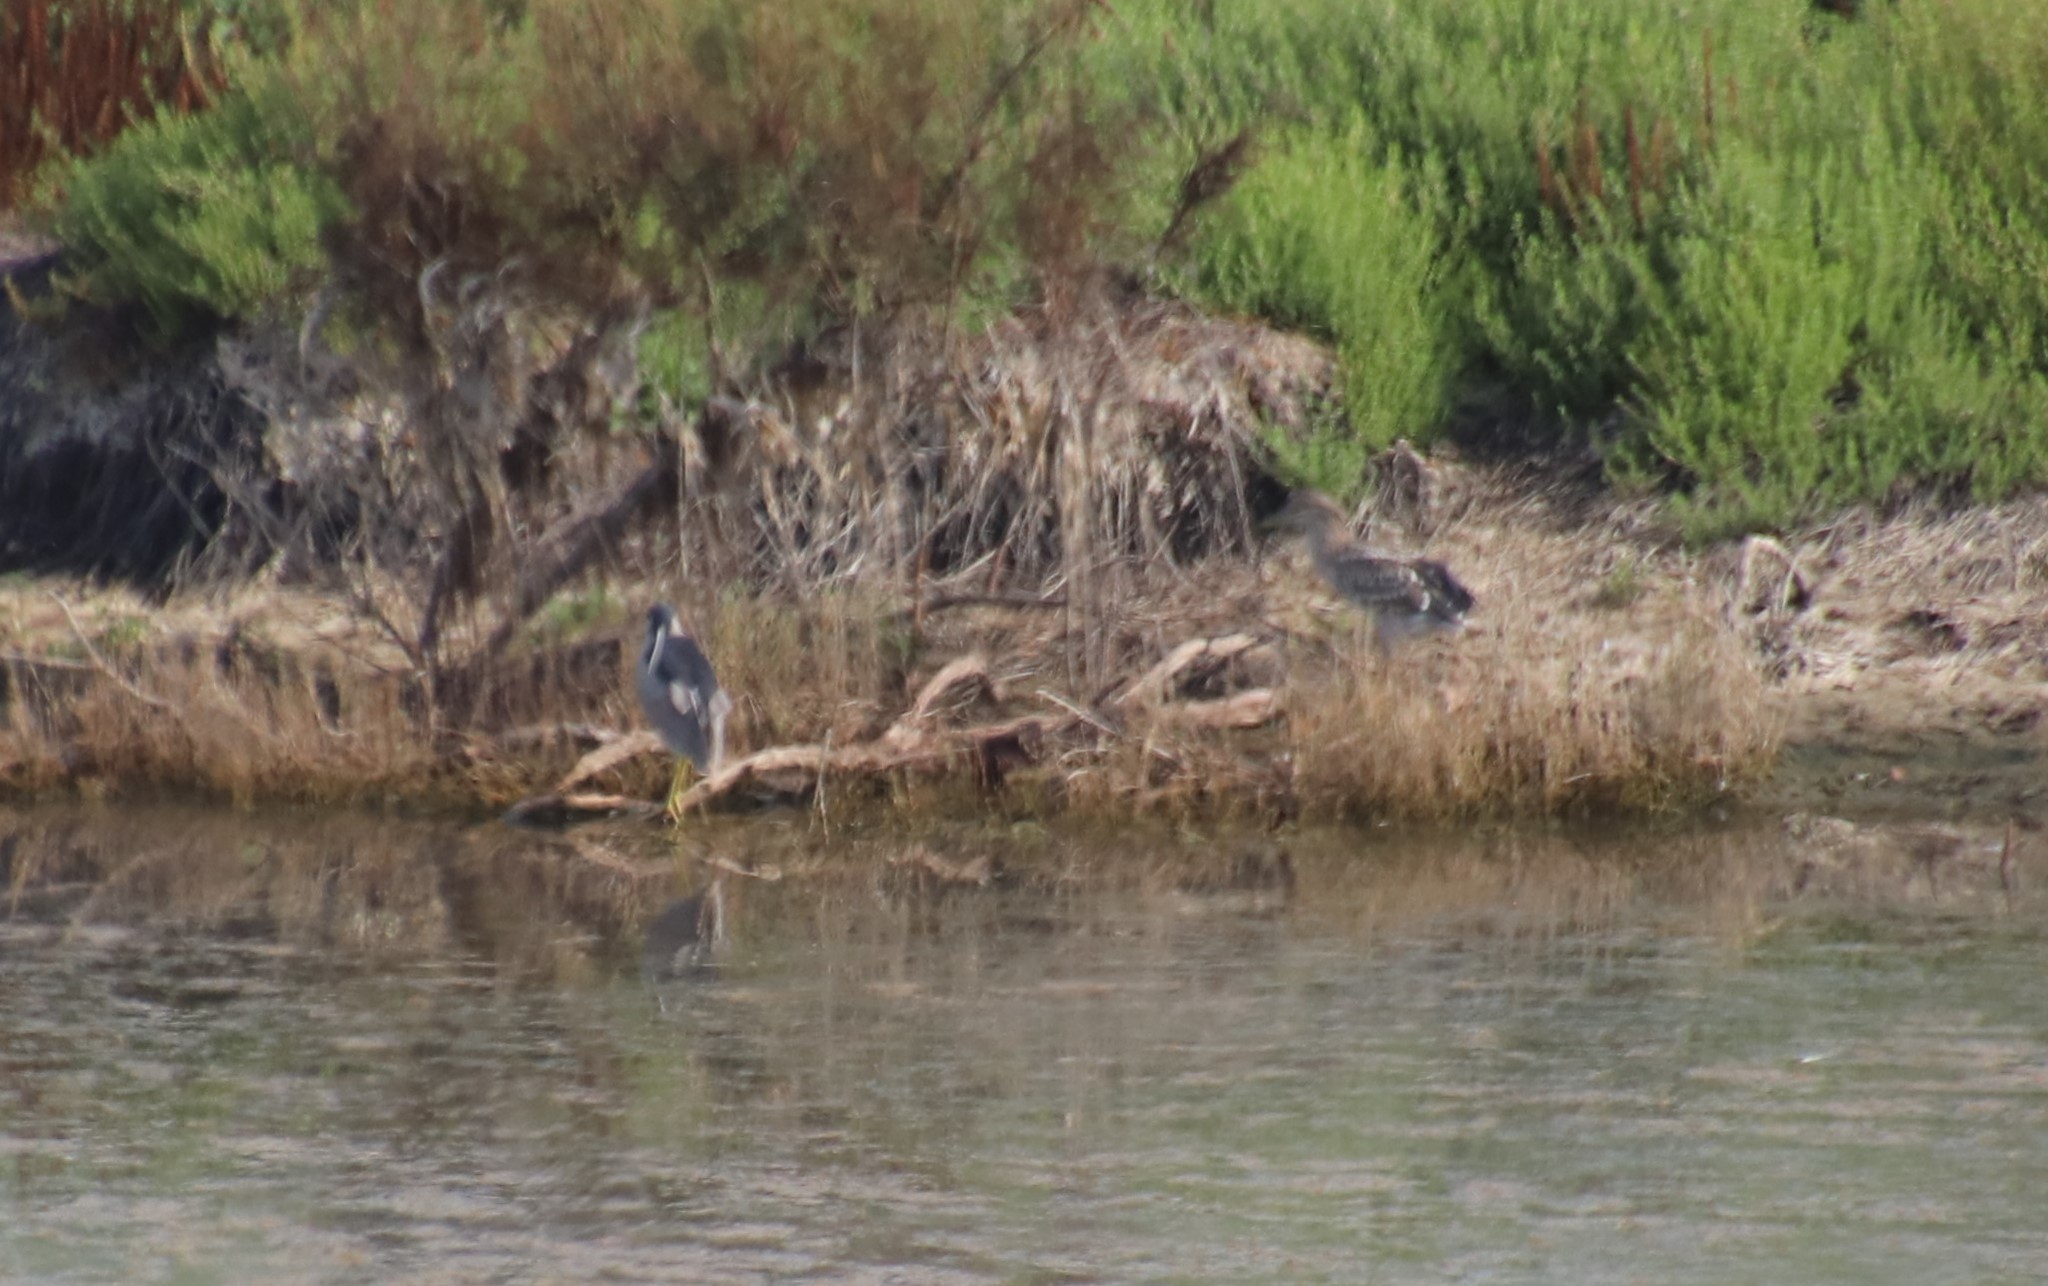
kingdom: Animalia
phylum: Chordata
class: Aves
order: Pelecaniformes
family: Ardeidae
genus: Nycticorax
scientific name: Nycticorax nycticorax
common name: Black-crowned night heron
